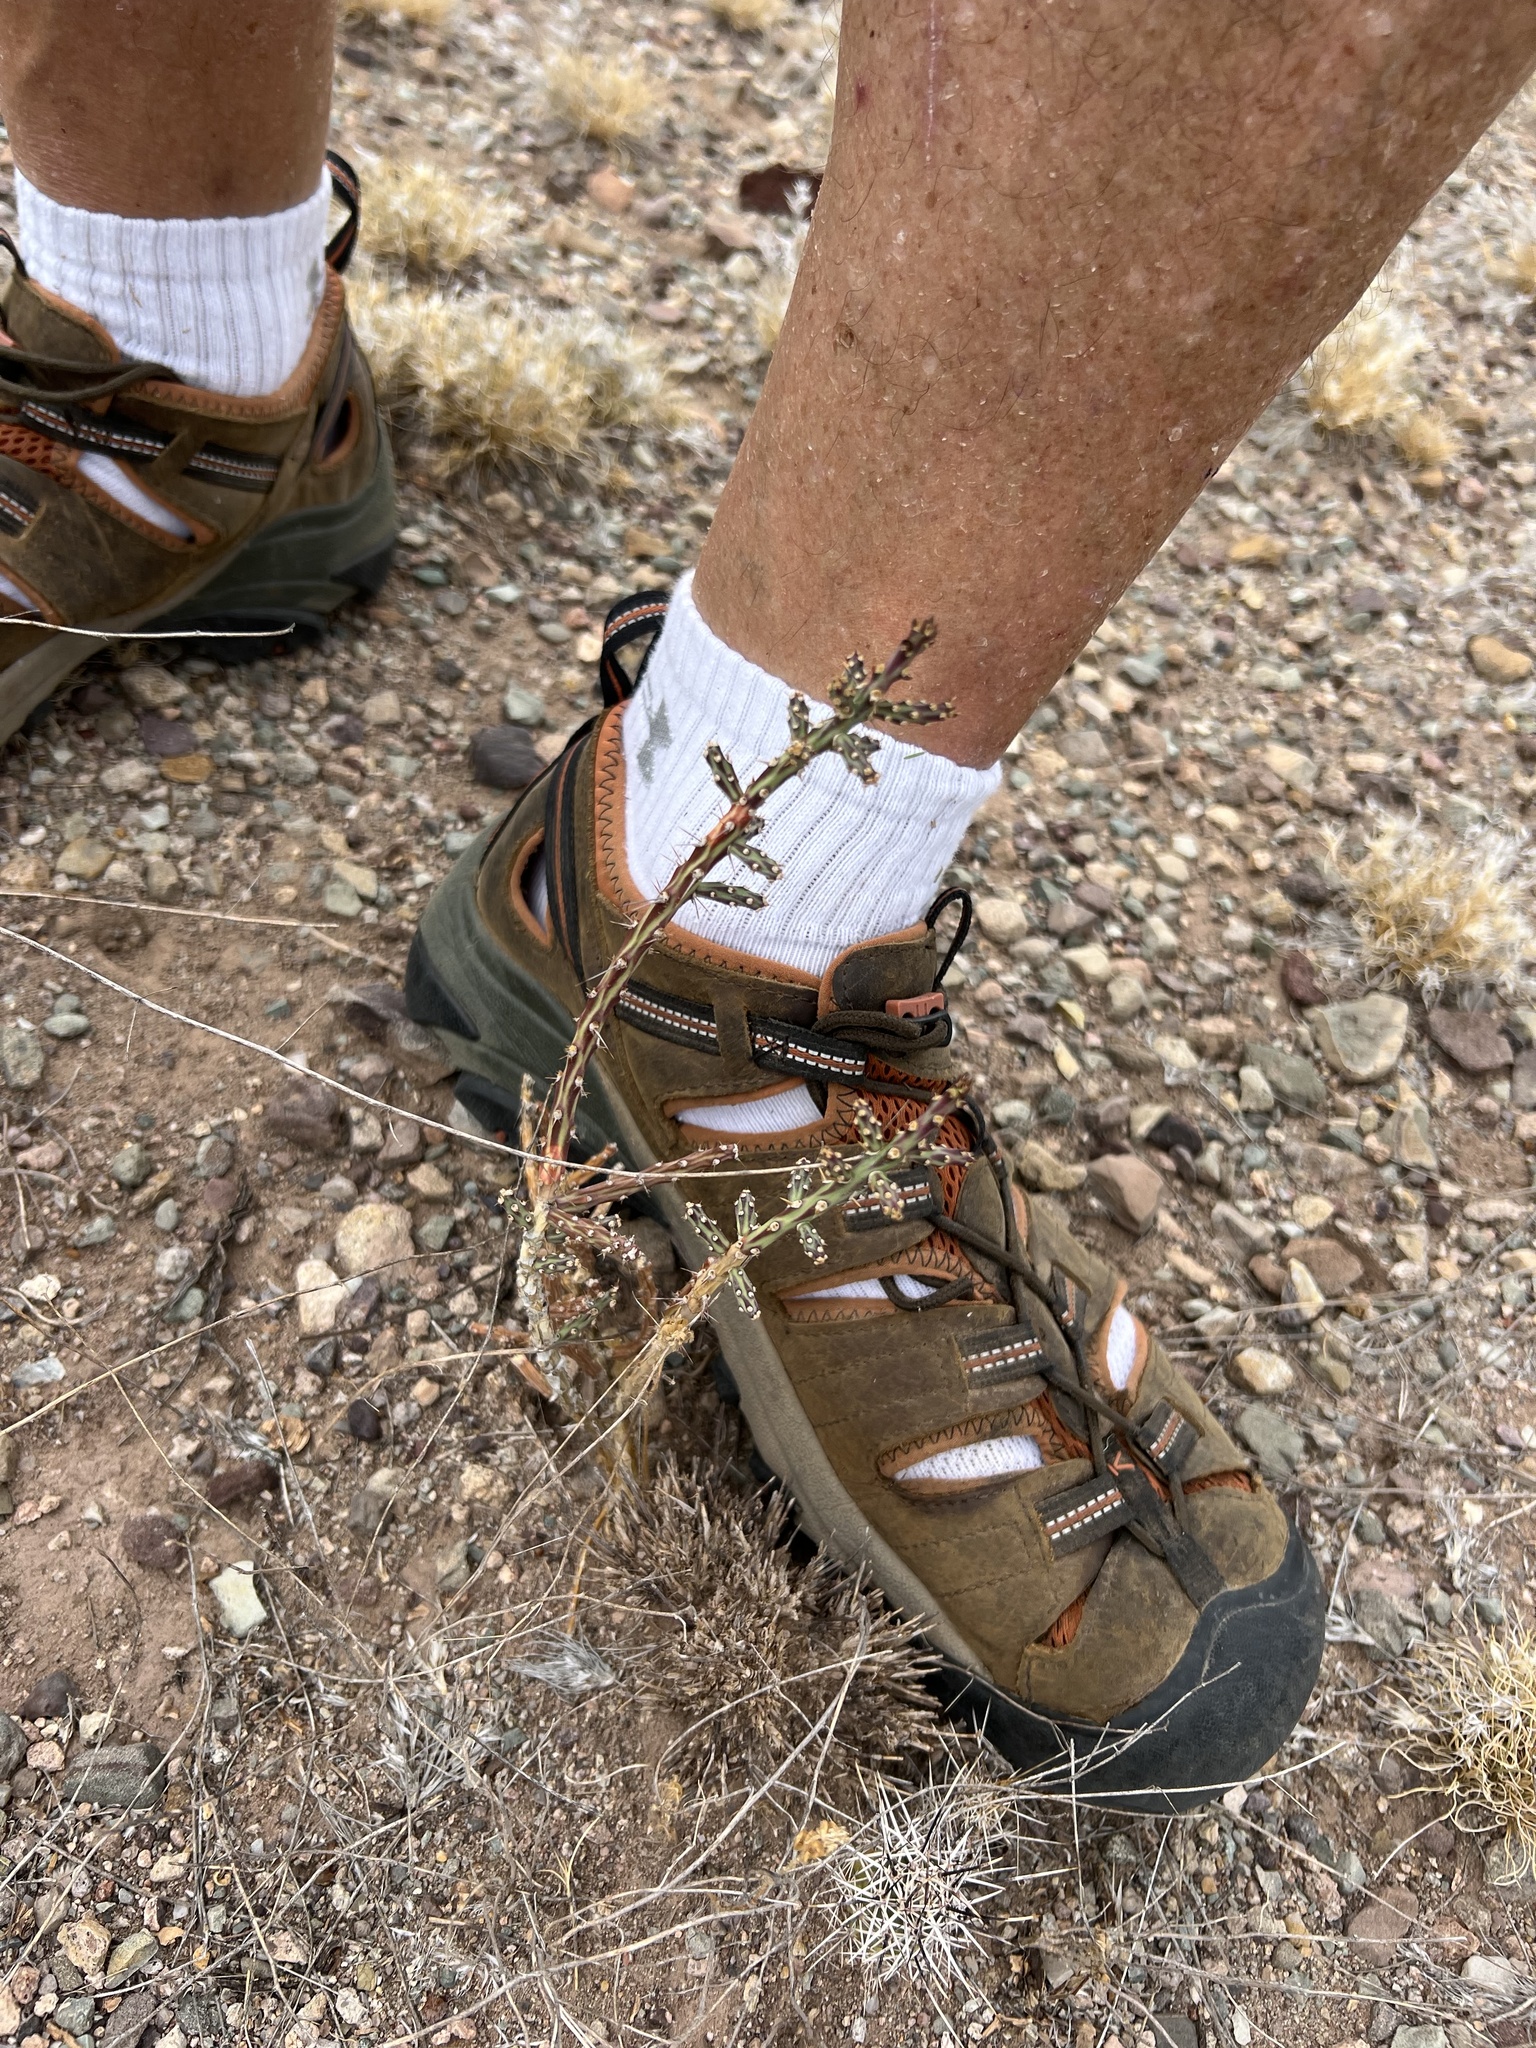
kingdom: Plantae
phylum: Tracheophyta
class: Magnoliopsida
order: Caryophyllales
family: Cactaceae
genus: Cylindropuntia
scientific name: Cylindropuntia leptocaulis
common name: Christmas cactus
